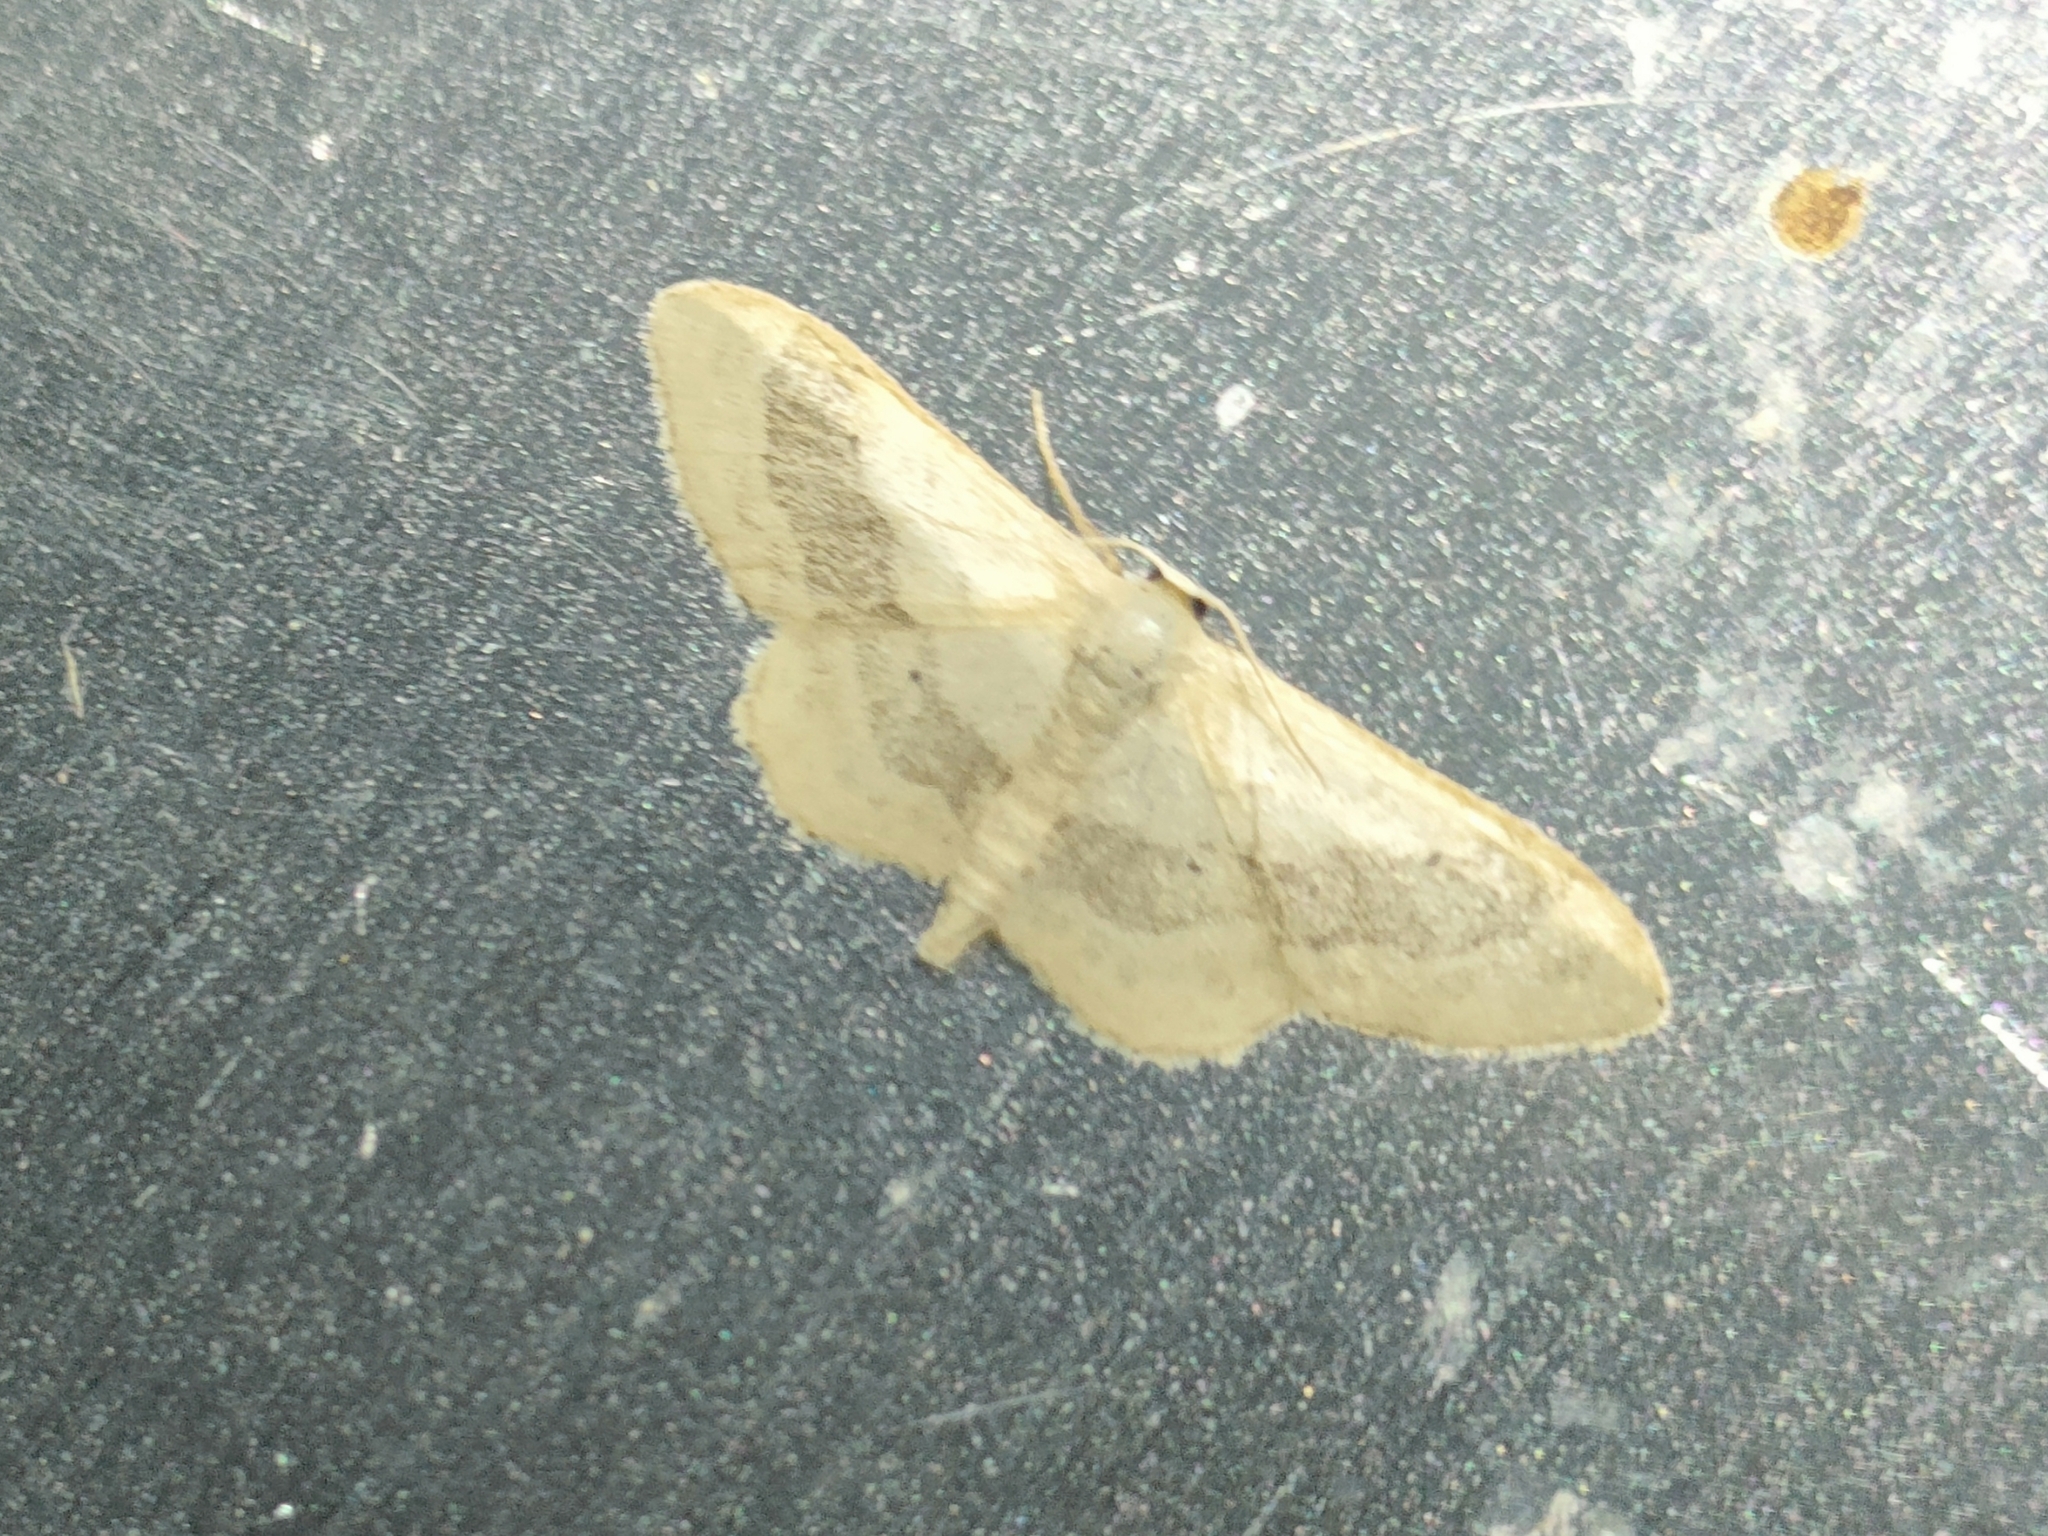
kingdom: Animalia
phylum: Arthropoda
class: Insecta
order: Lepidoptera
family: Geometridae
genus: Idaea
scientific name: Idaea aversata
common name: Riband wave
